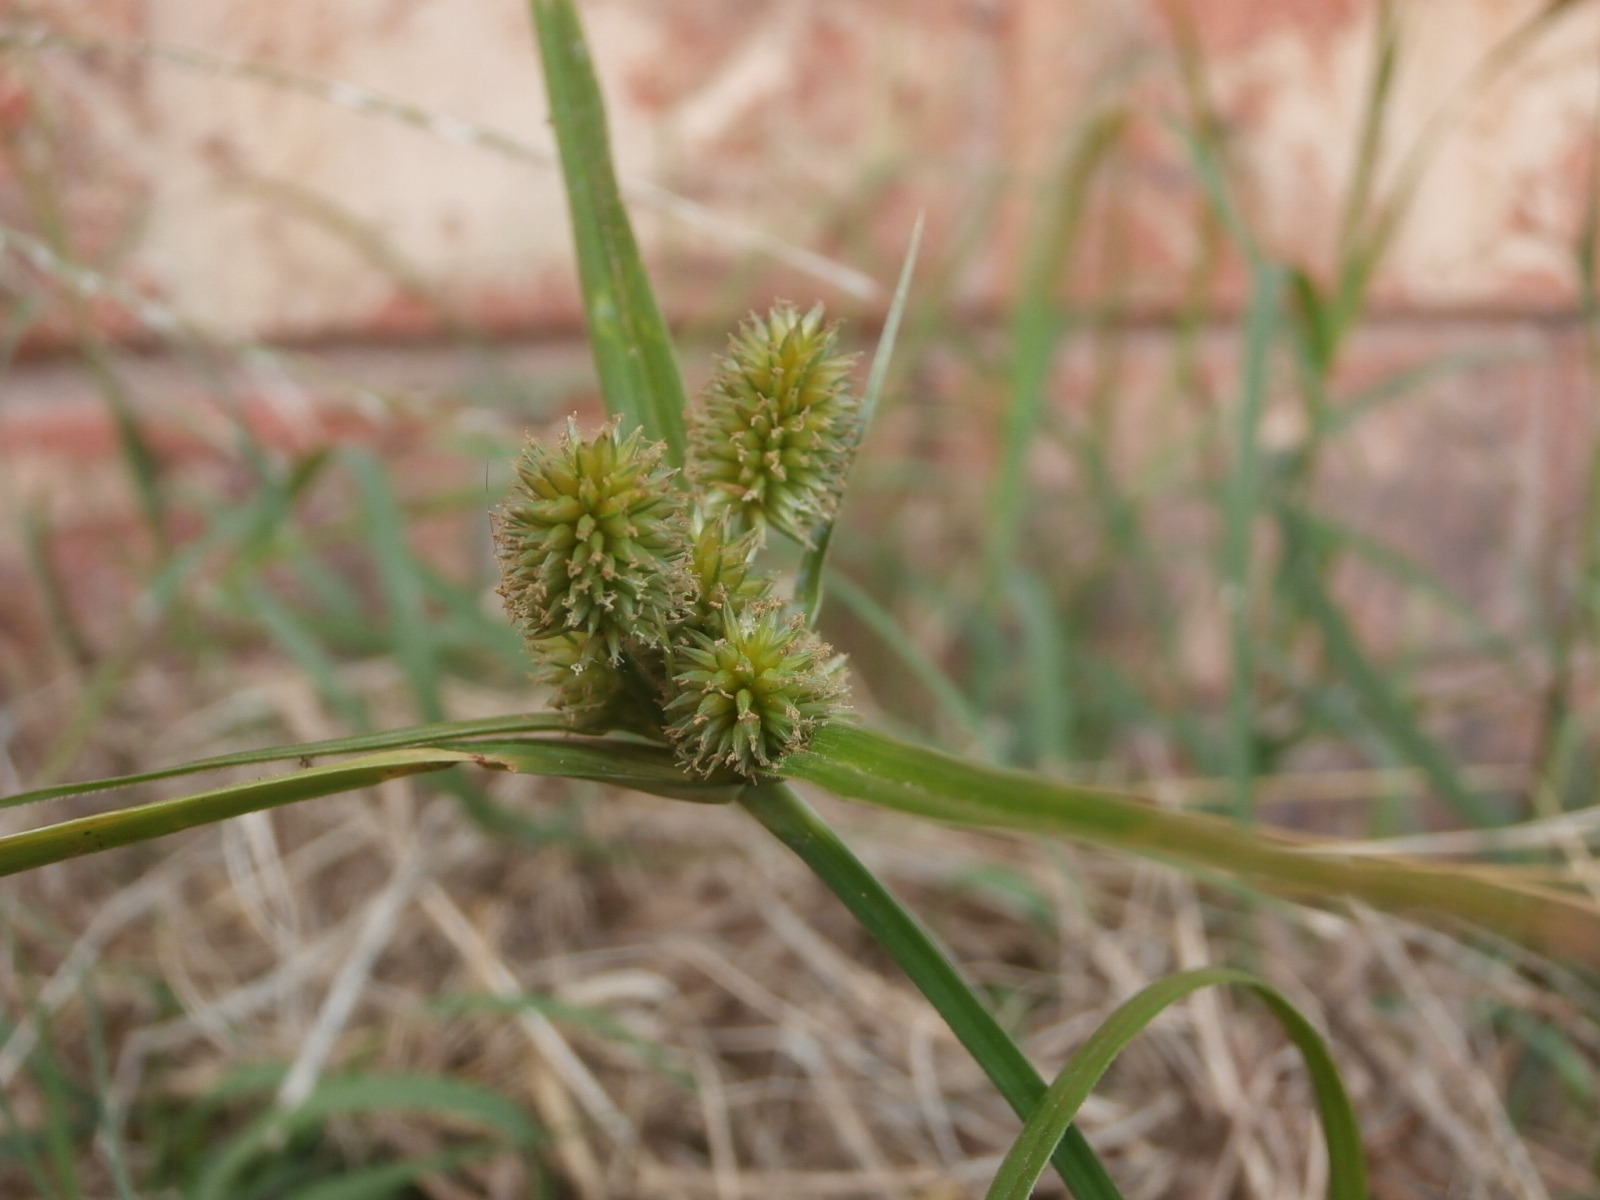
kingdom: Plantae
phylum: Tracheophyta
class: Liliopsida
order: Poales
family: Cyperaceae
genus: Cyperus
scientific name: Cyperus retrorsus
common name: Pinebarren flat sedge
